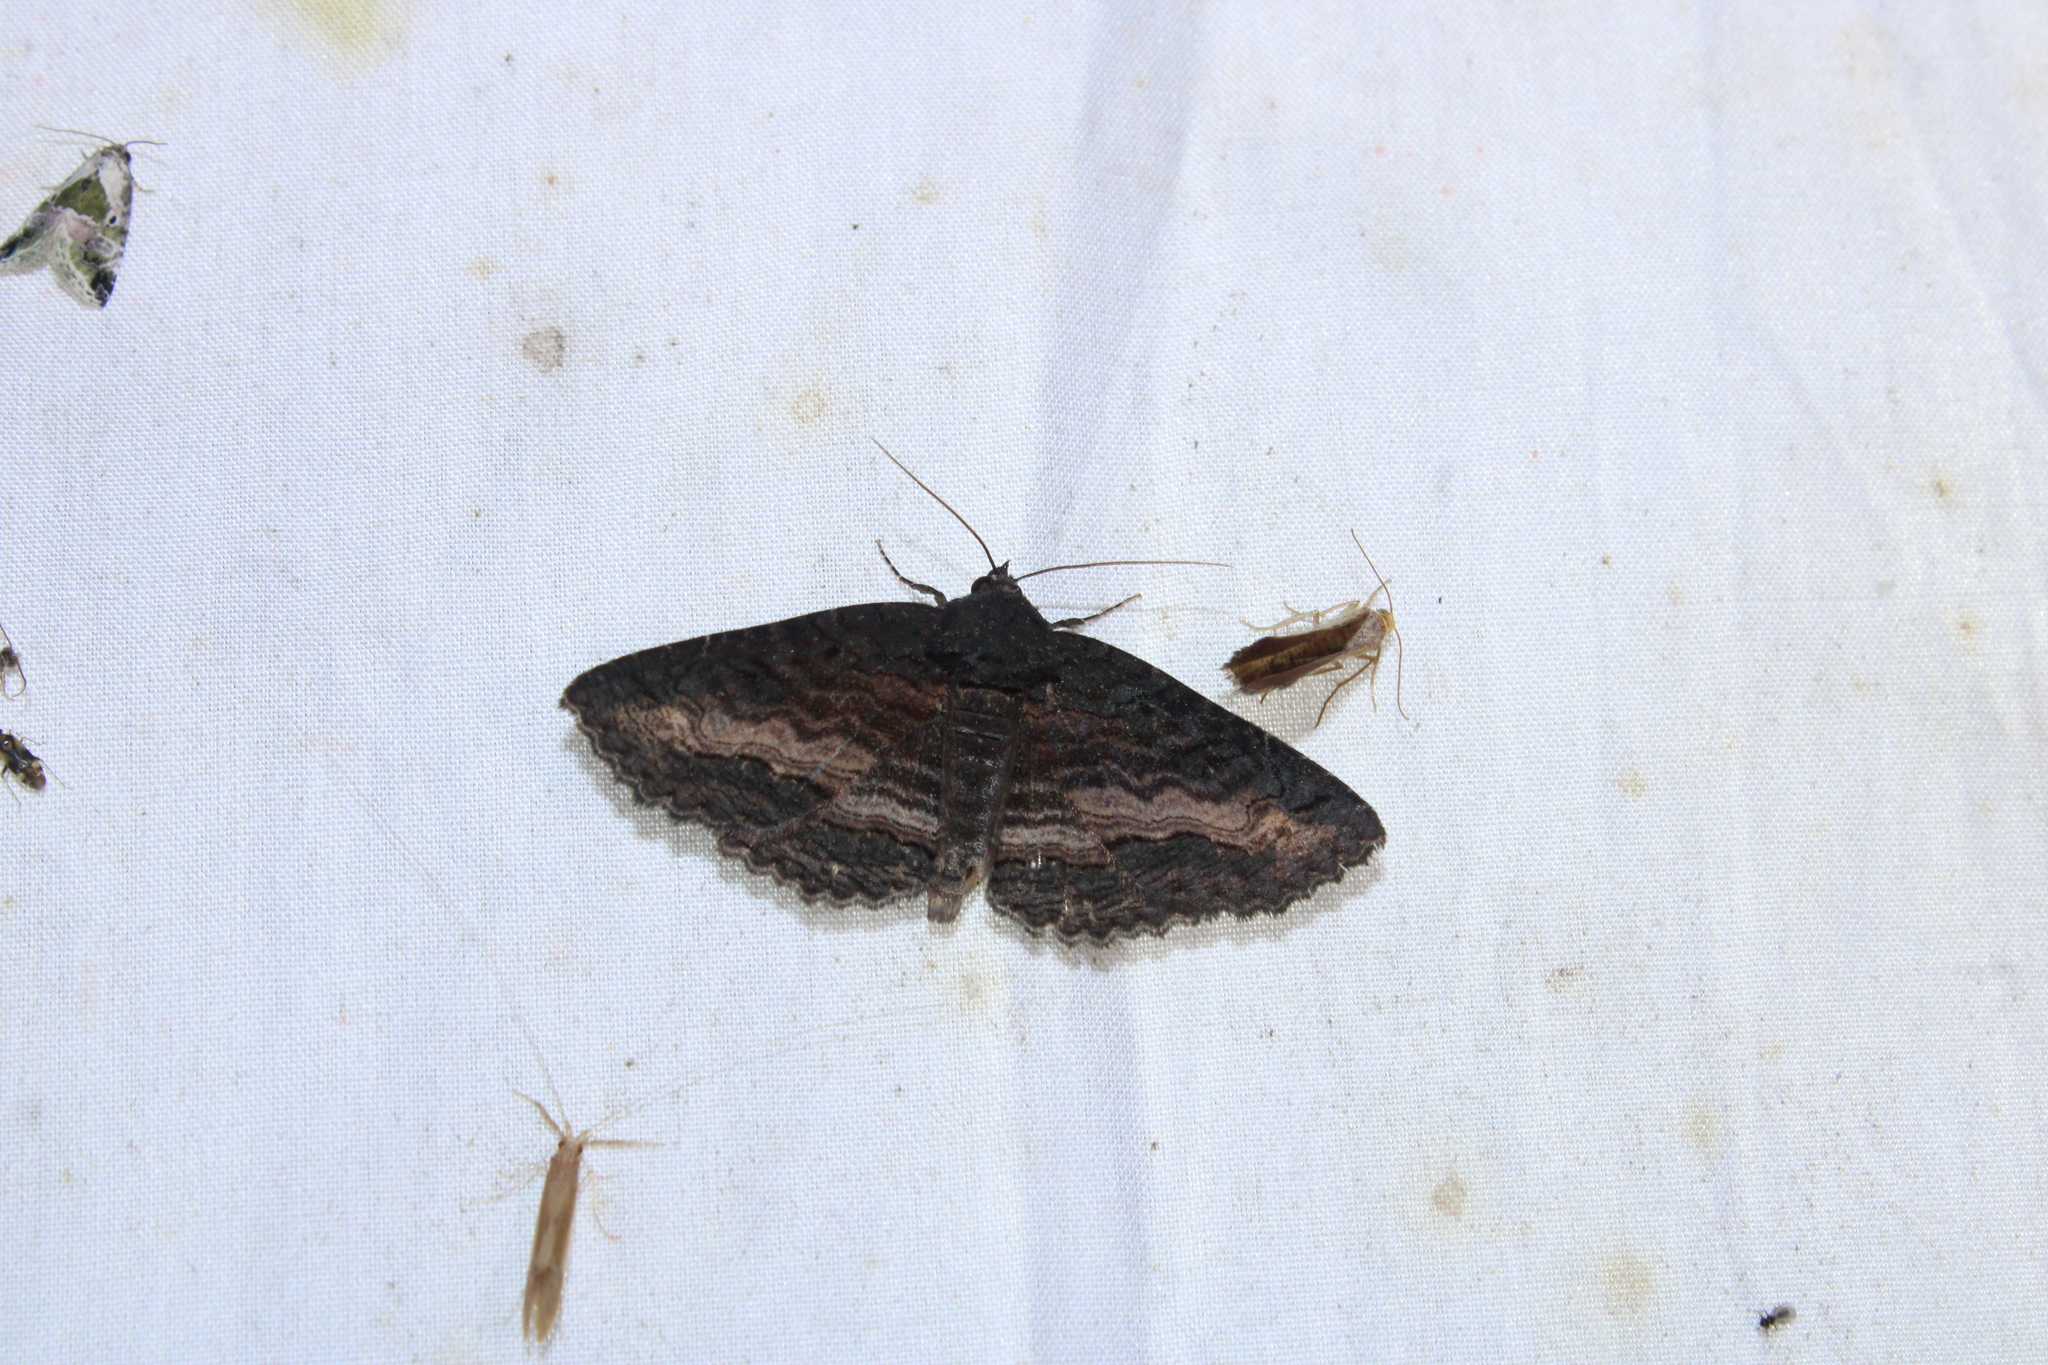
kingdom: Animalia
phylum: Arthropoda
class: Insecta
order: Lepidoptera
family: Erebidae
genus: Zale
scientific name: Zale undularis
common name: Black zale moth
